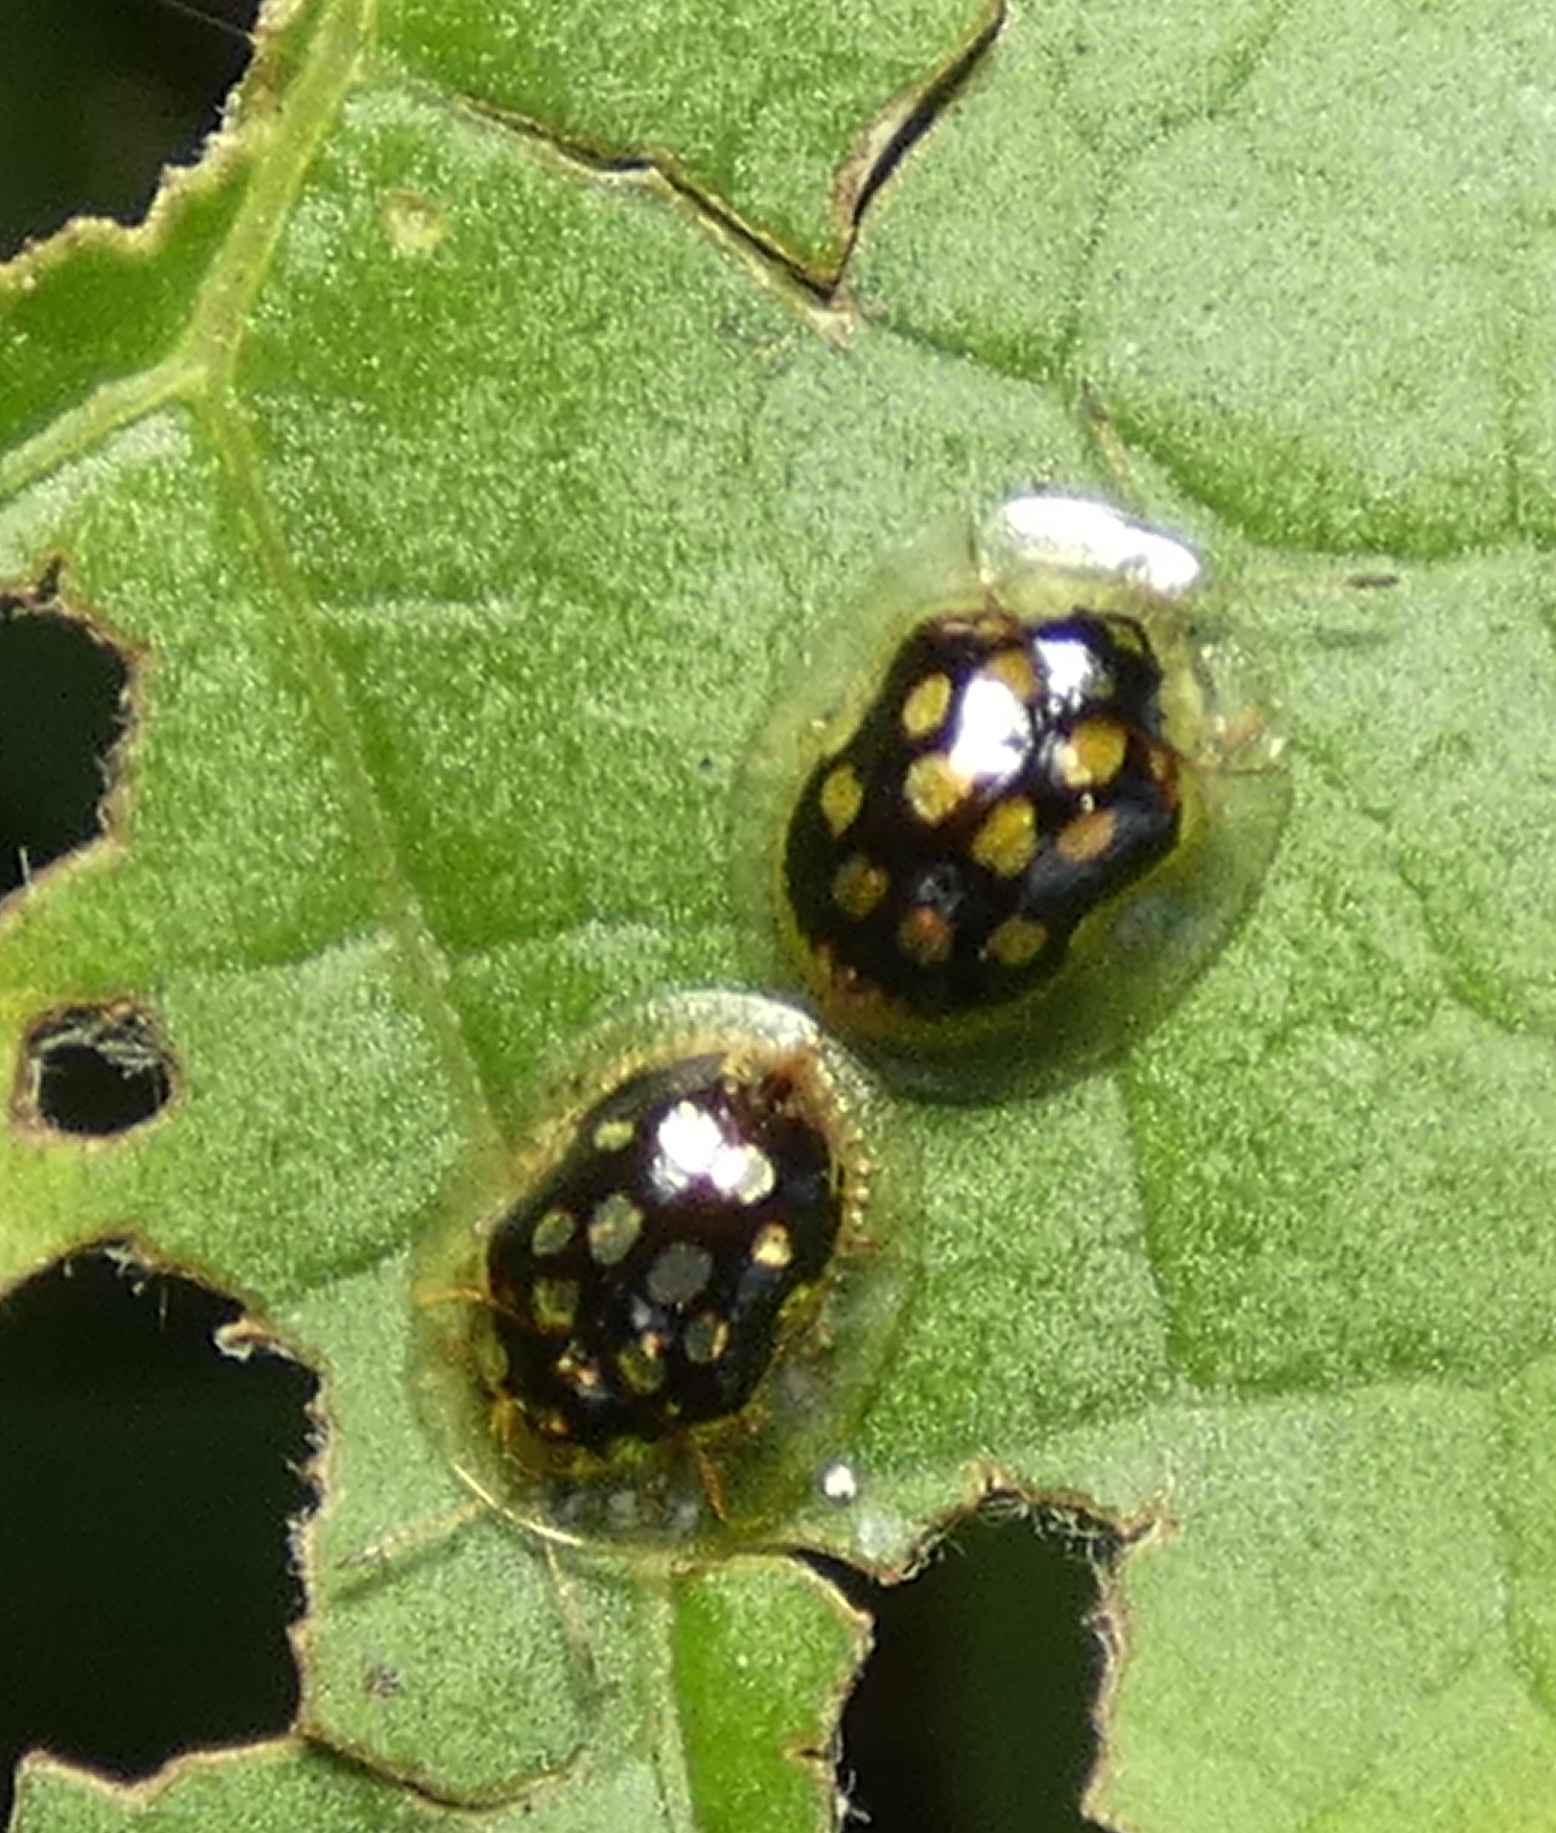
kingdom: Animalia
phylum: Arthropoda
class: Insecta
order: Coleoptera
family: Chrysomelidae
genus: Plagiometriona
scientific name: Plagiometriona microcera
